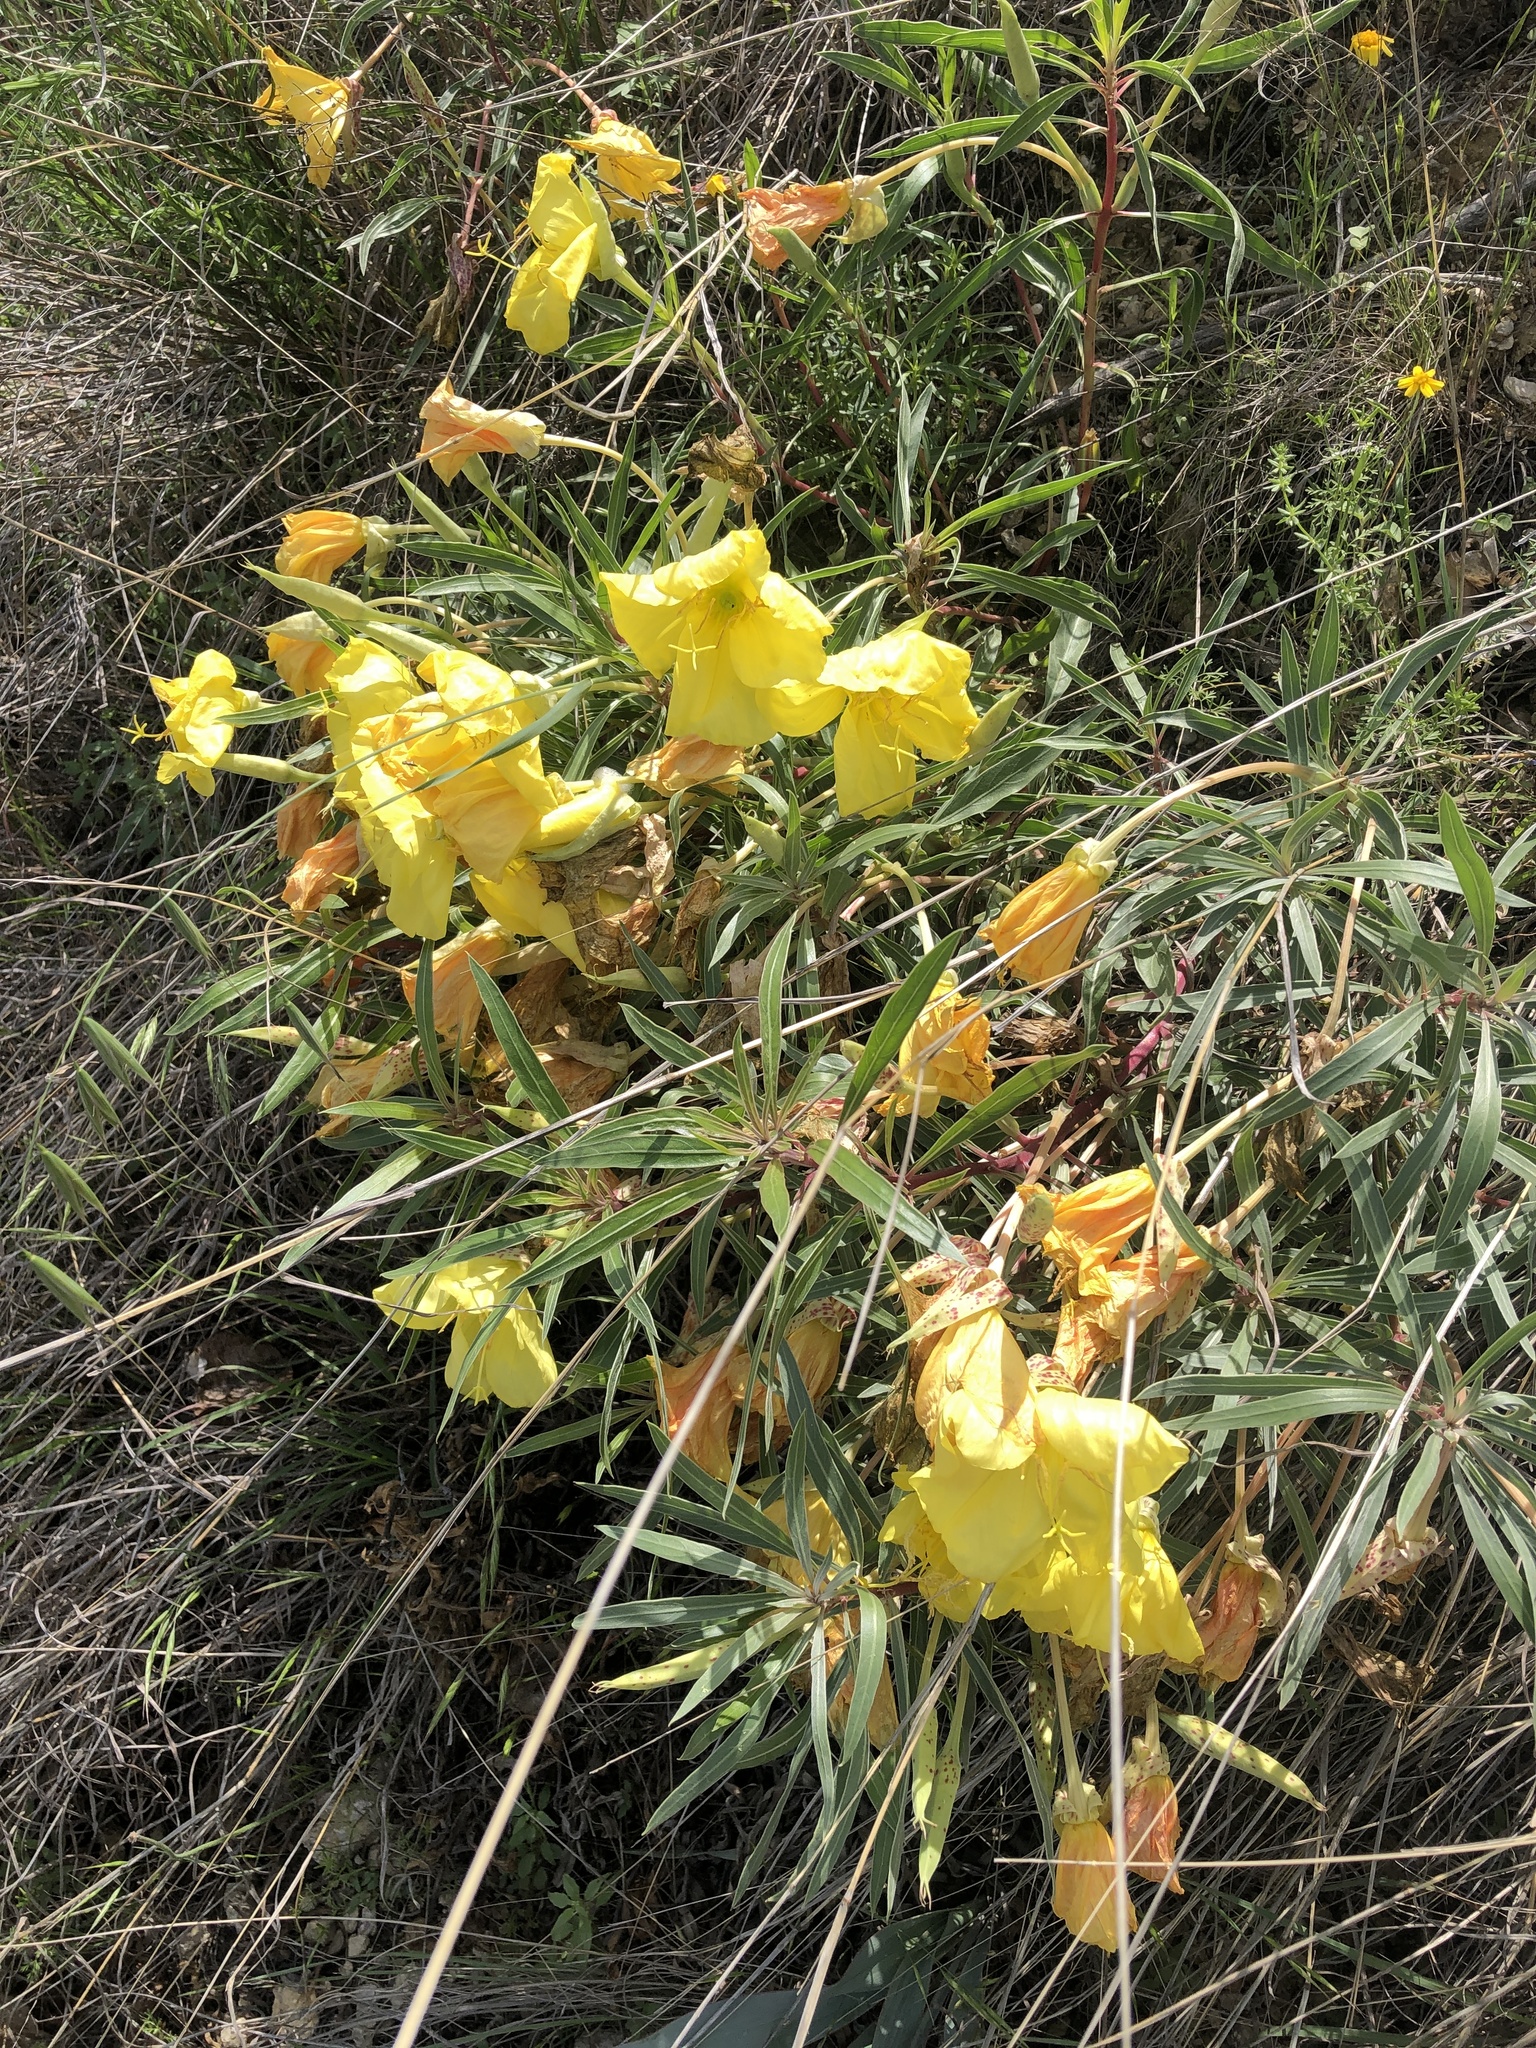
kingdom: Plantae
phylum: Tracheophyta
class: Magnoliopsida
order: Myrtales
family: Onagraceae
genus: Oenothera
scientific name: Oenothera macrocarpa
